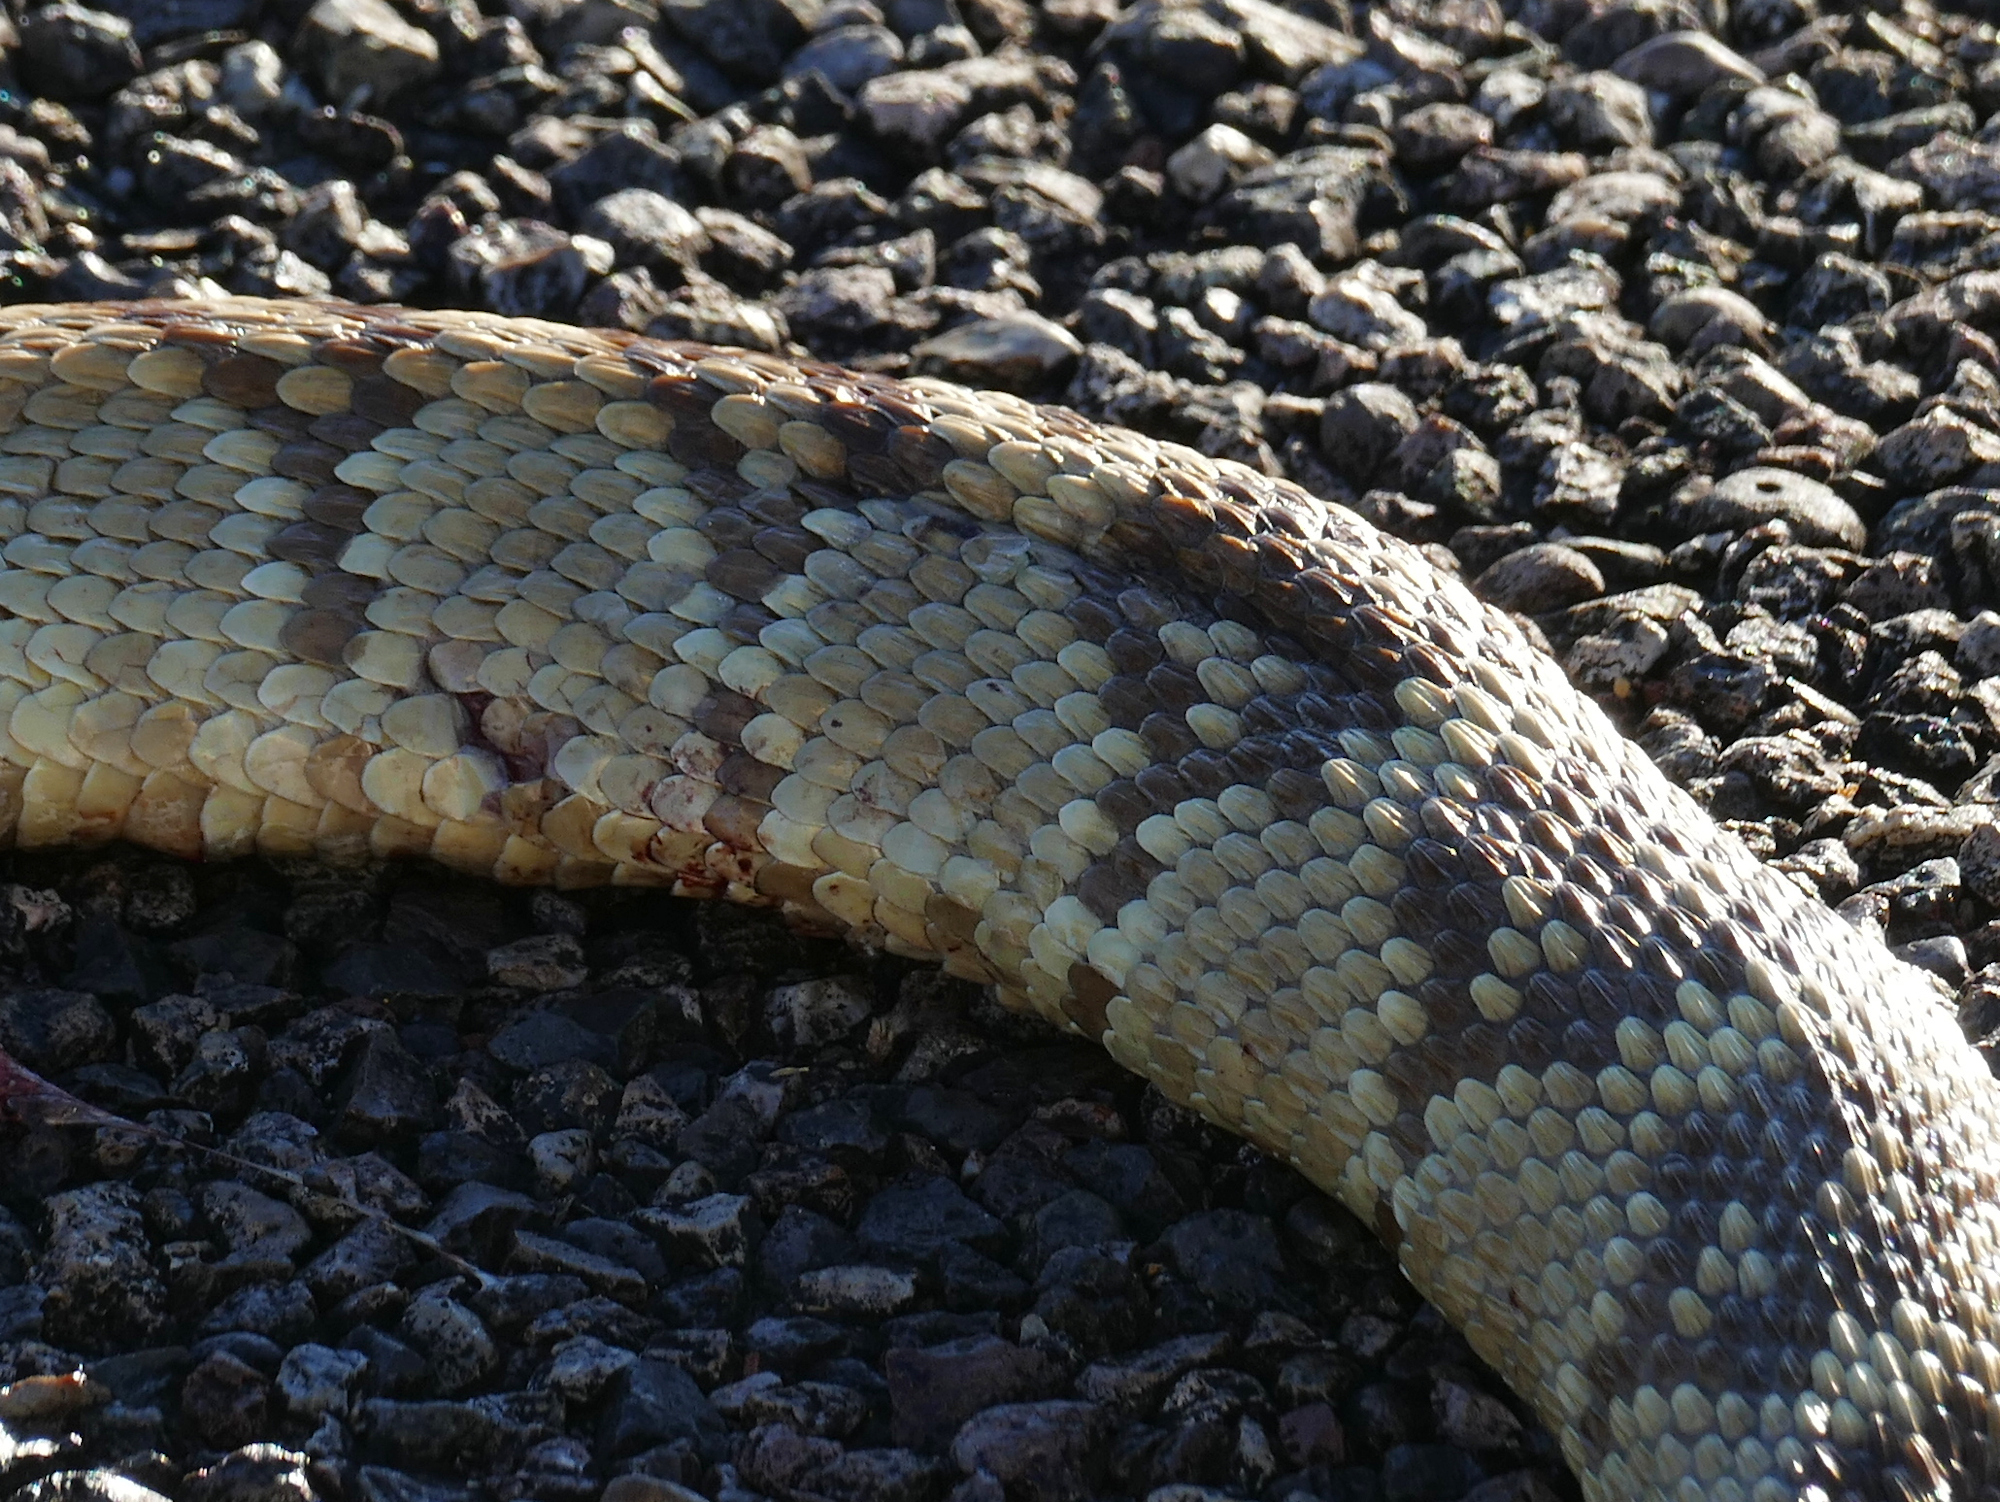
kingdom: Animalia
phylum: Chordata
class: Squamata
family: Viperidae
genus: Crotalus
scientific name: Crotalus molossus
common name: Black tailed rattlesnake
